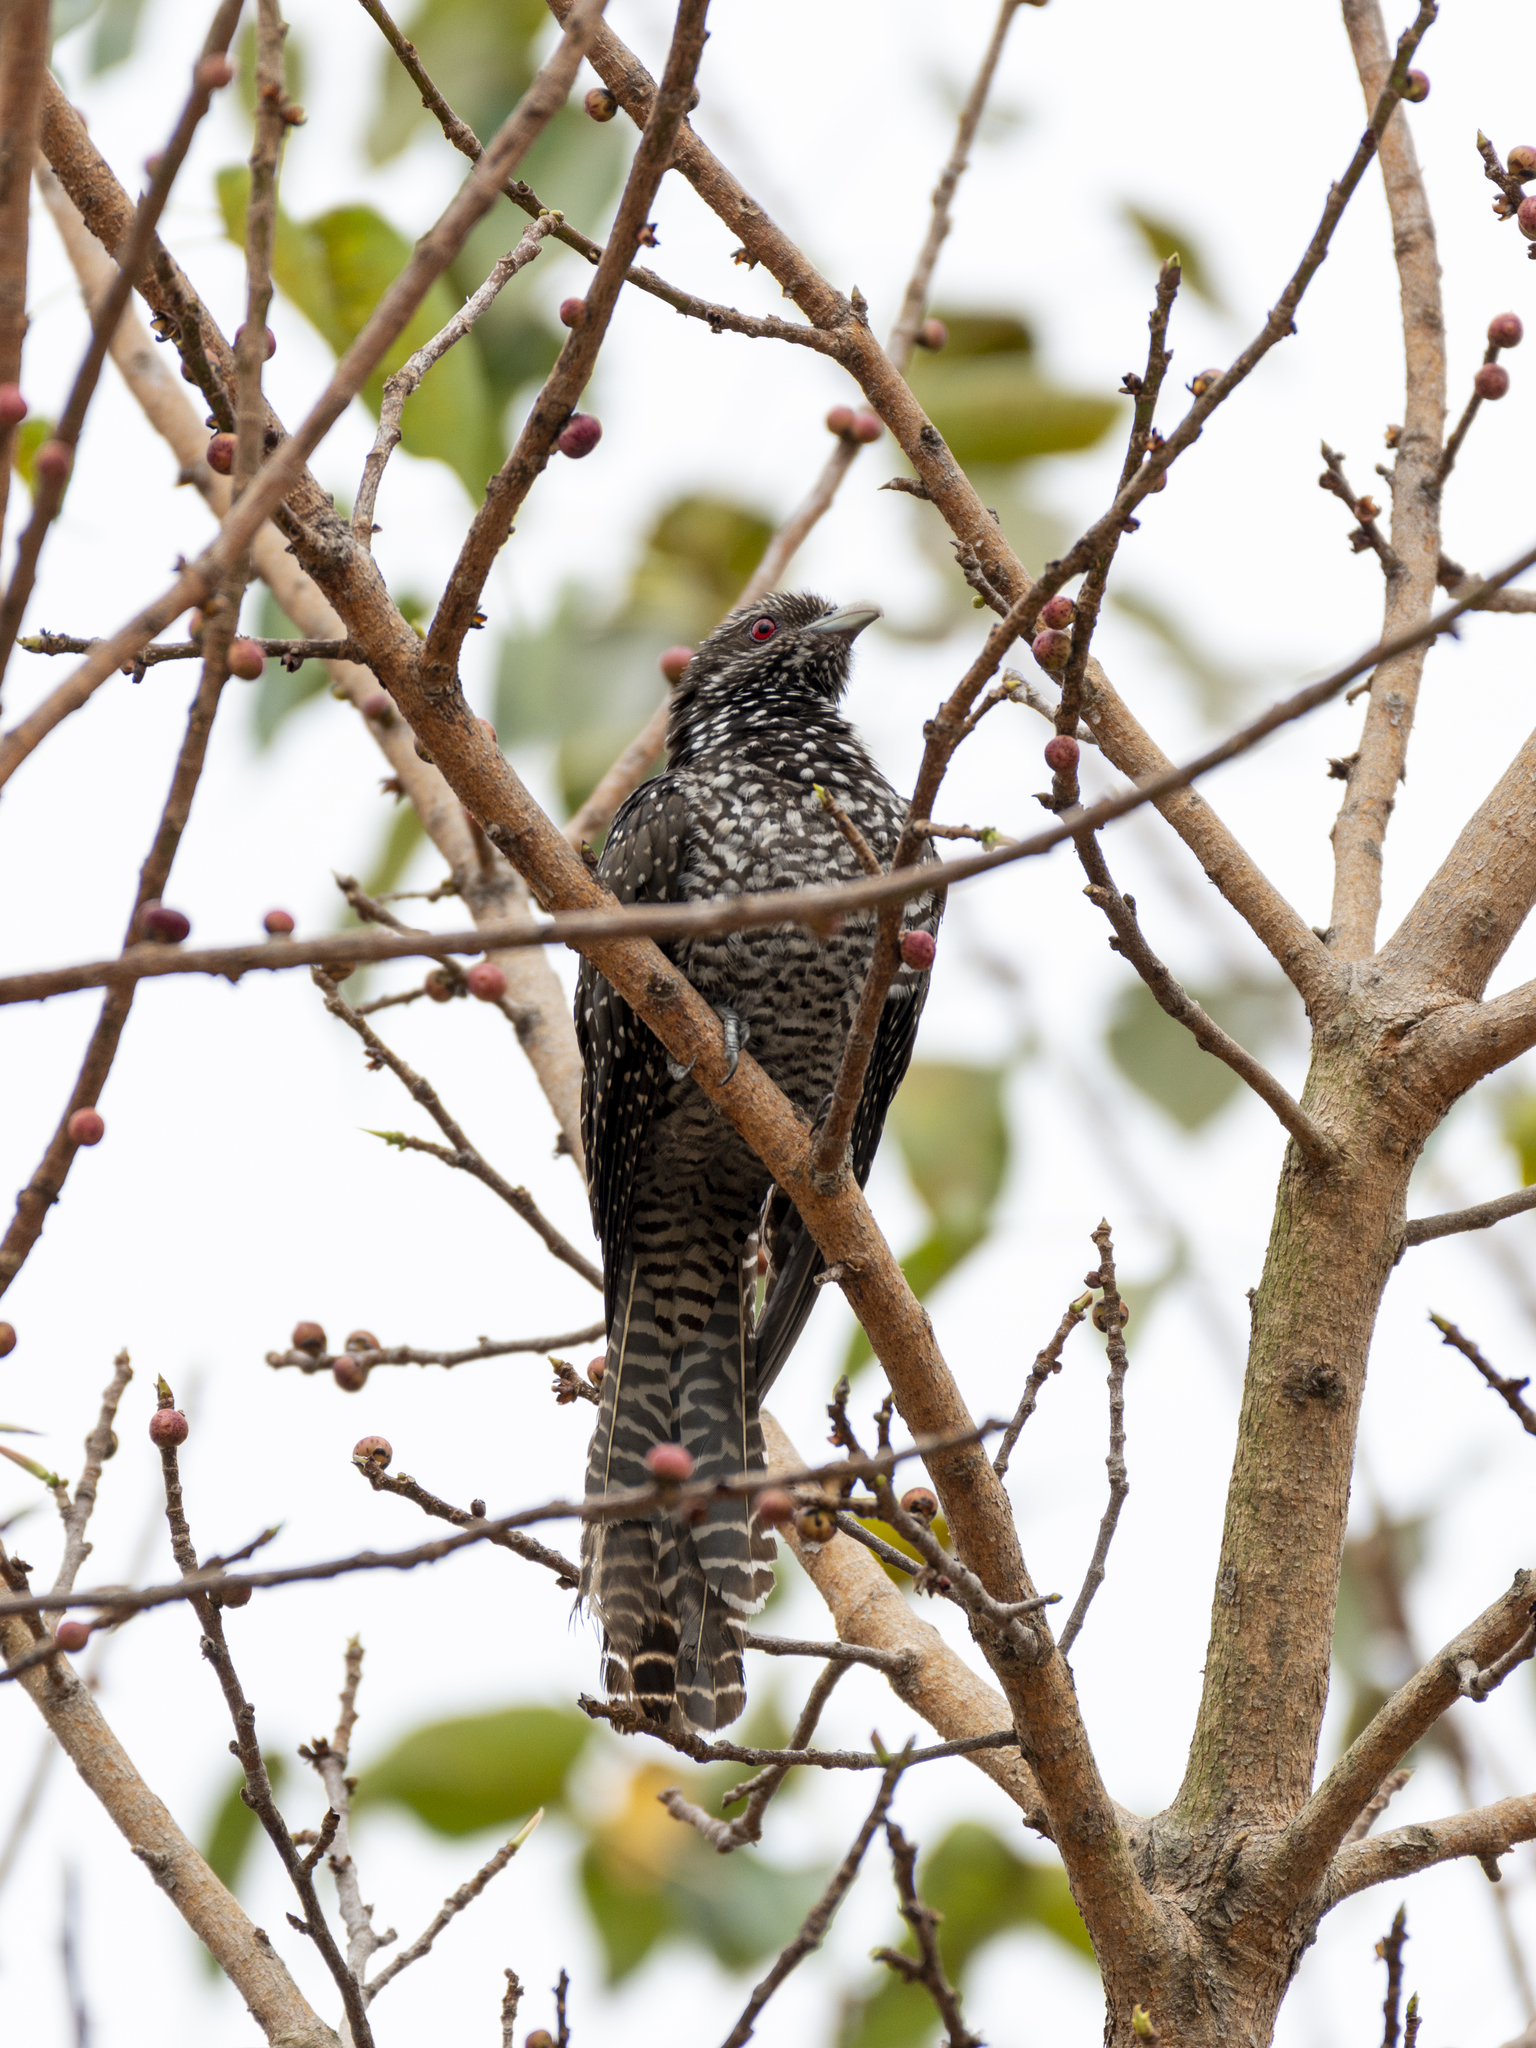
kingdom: Animalia
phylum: Chordata
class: Aves
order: Cuculiformes
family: Cuculidae
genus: Eudynamys
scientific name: Eudynamys scolopaceus
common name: Asian koel
